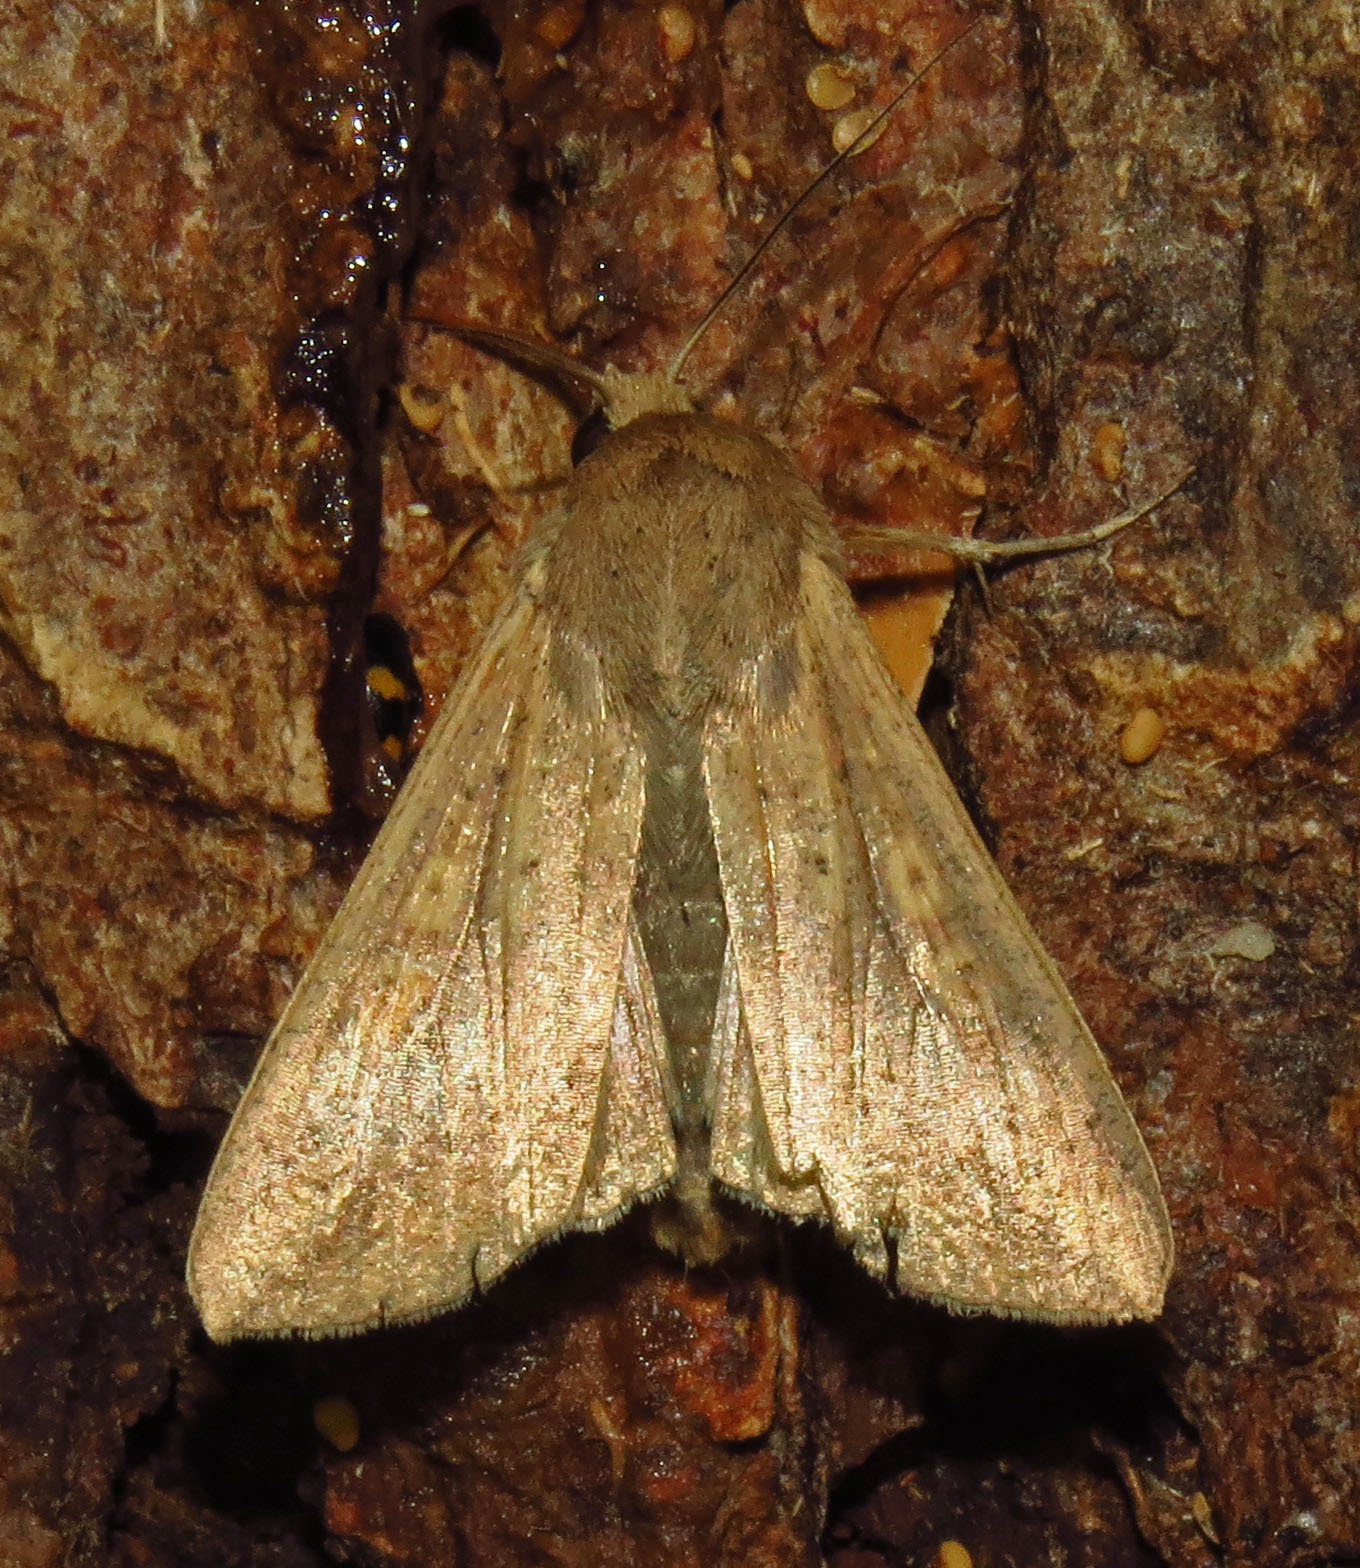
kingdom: Animalia
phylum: Arthropoda
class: Insecta
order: Lepidoptera
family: Noctuidae
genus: Mythimna
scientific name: Mythimna unipuncta
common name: White-speck
